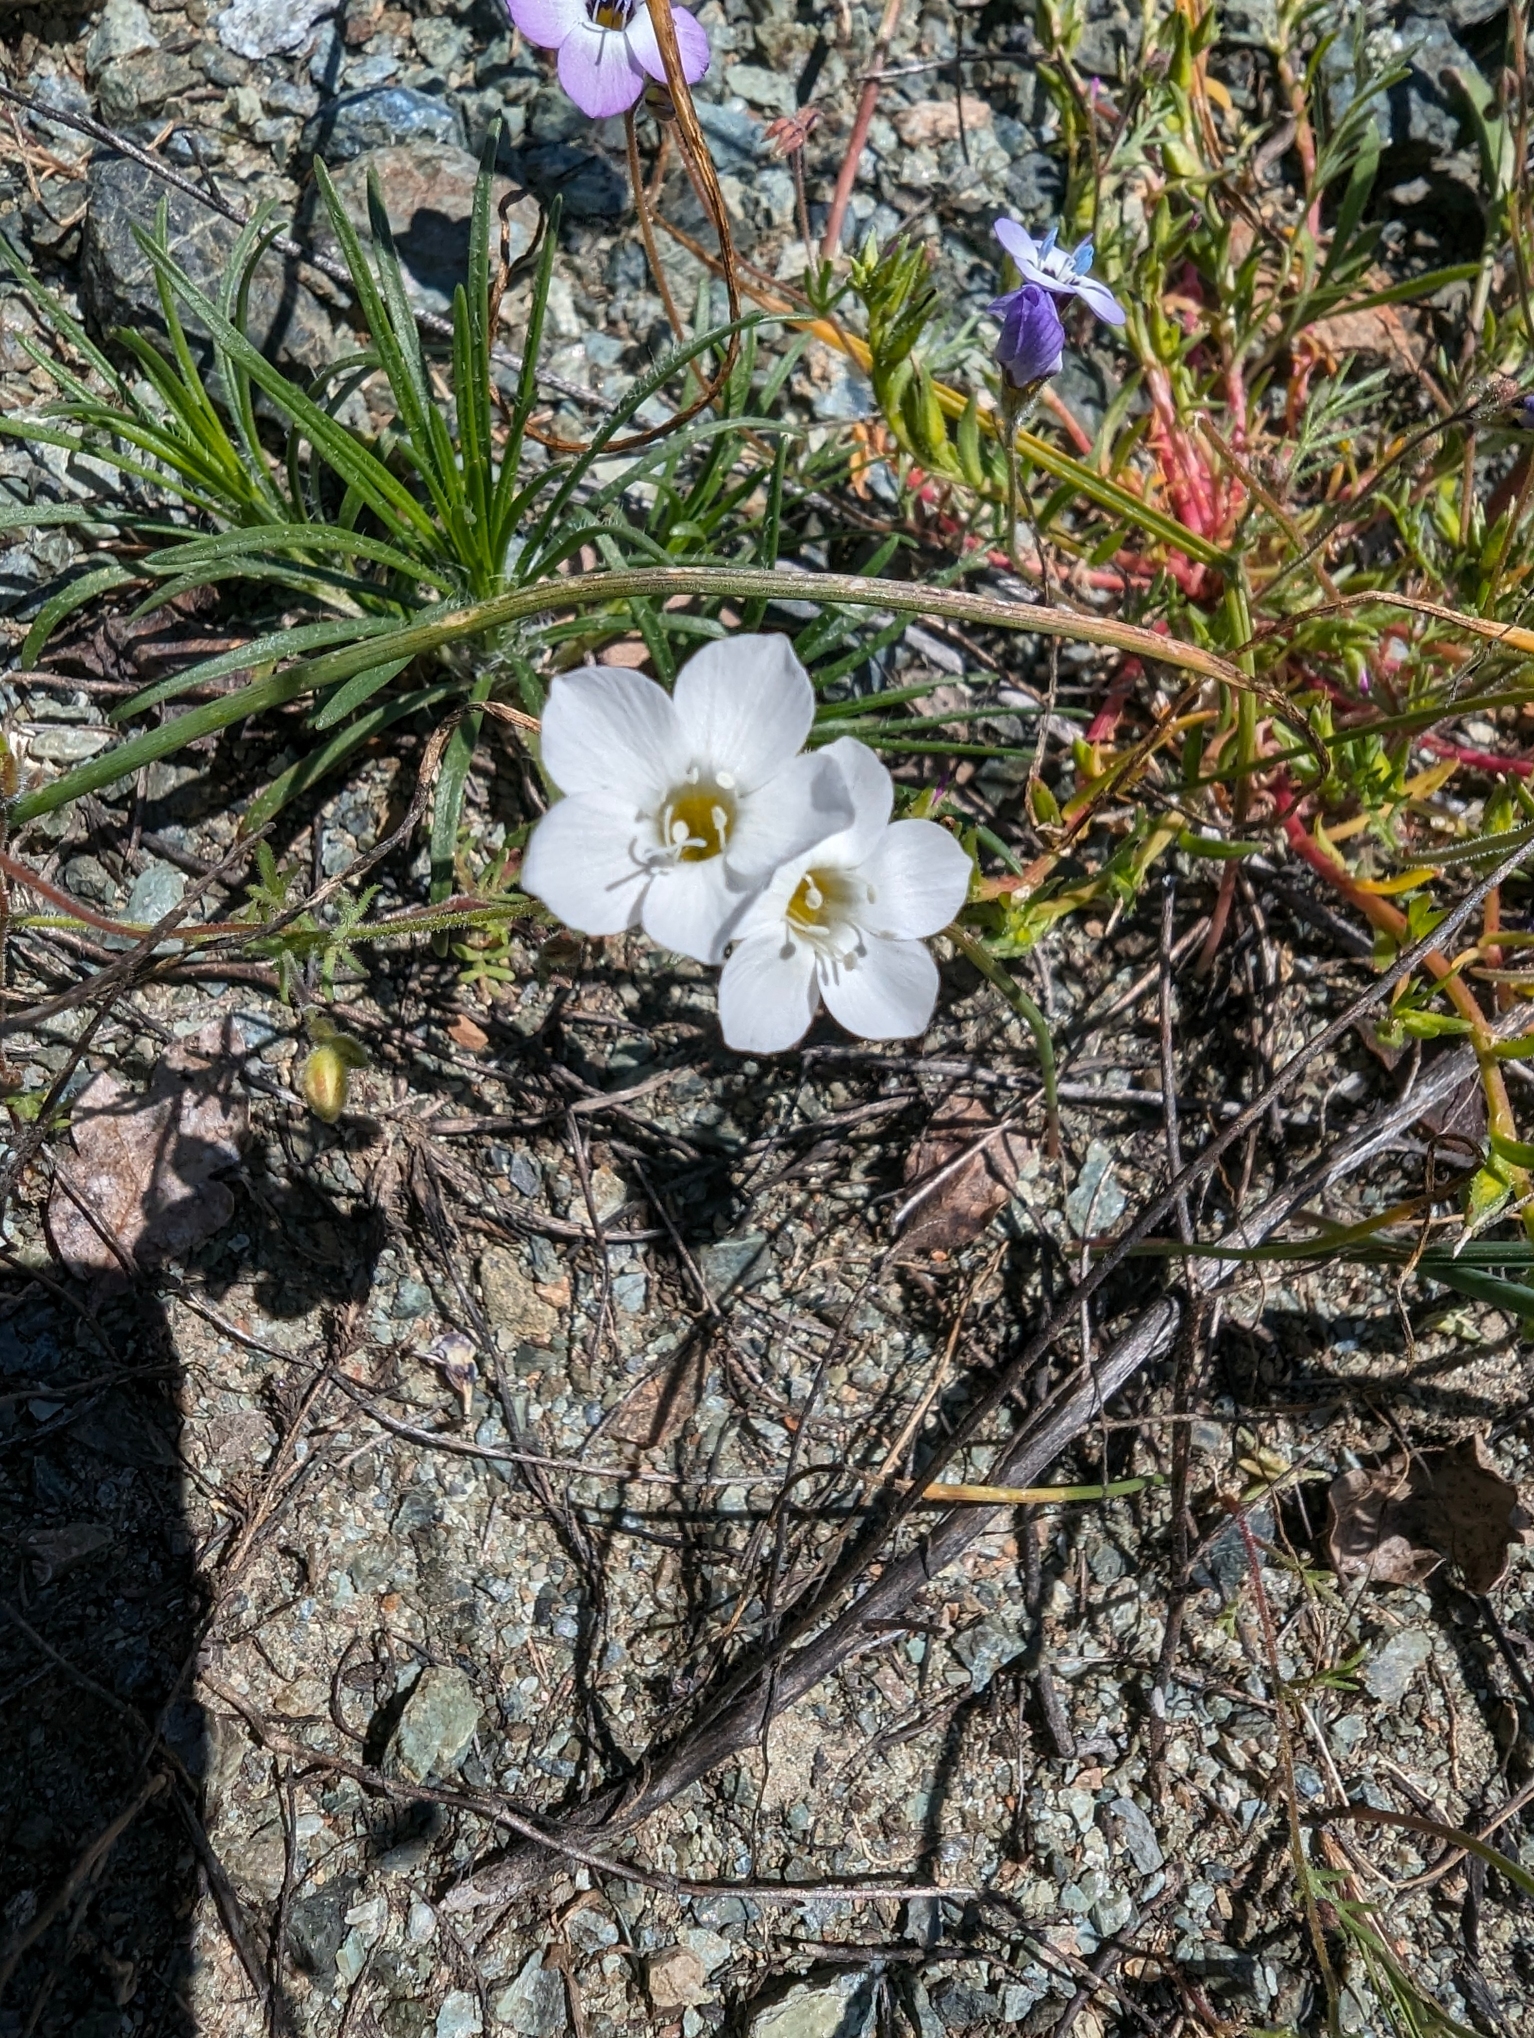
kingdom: Plantae
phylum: Tracheophyta
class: Magnoliopsida
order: Ericales
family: Polemoniaceae
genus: Gilia
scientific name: Gilia tricolor
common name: Bird's-eyes
